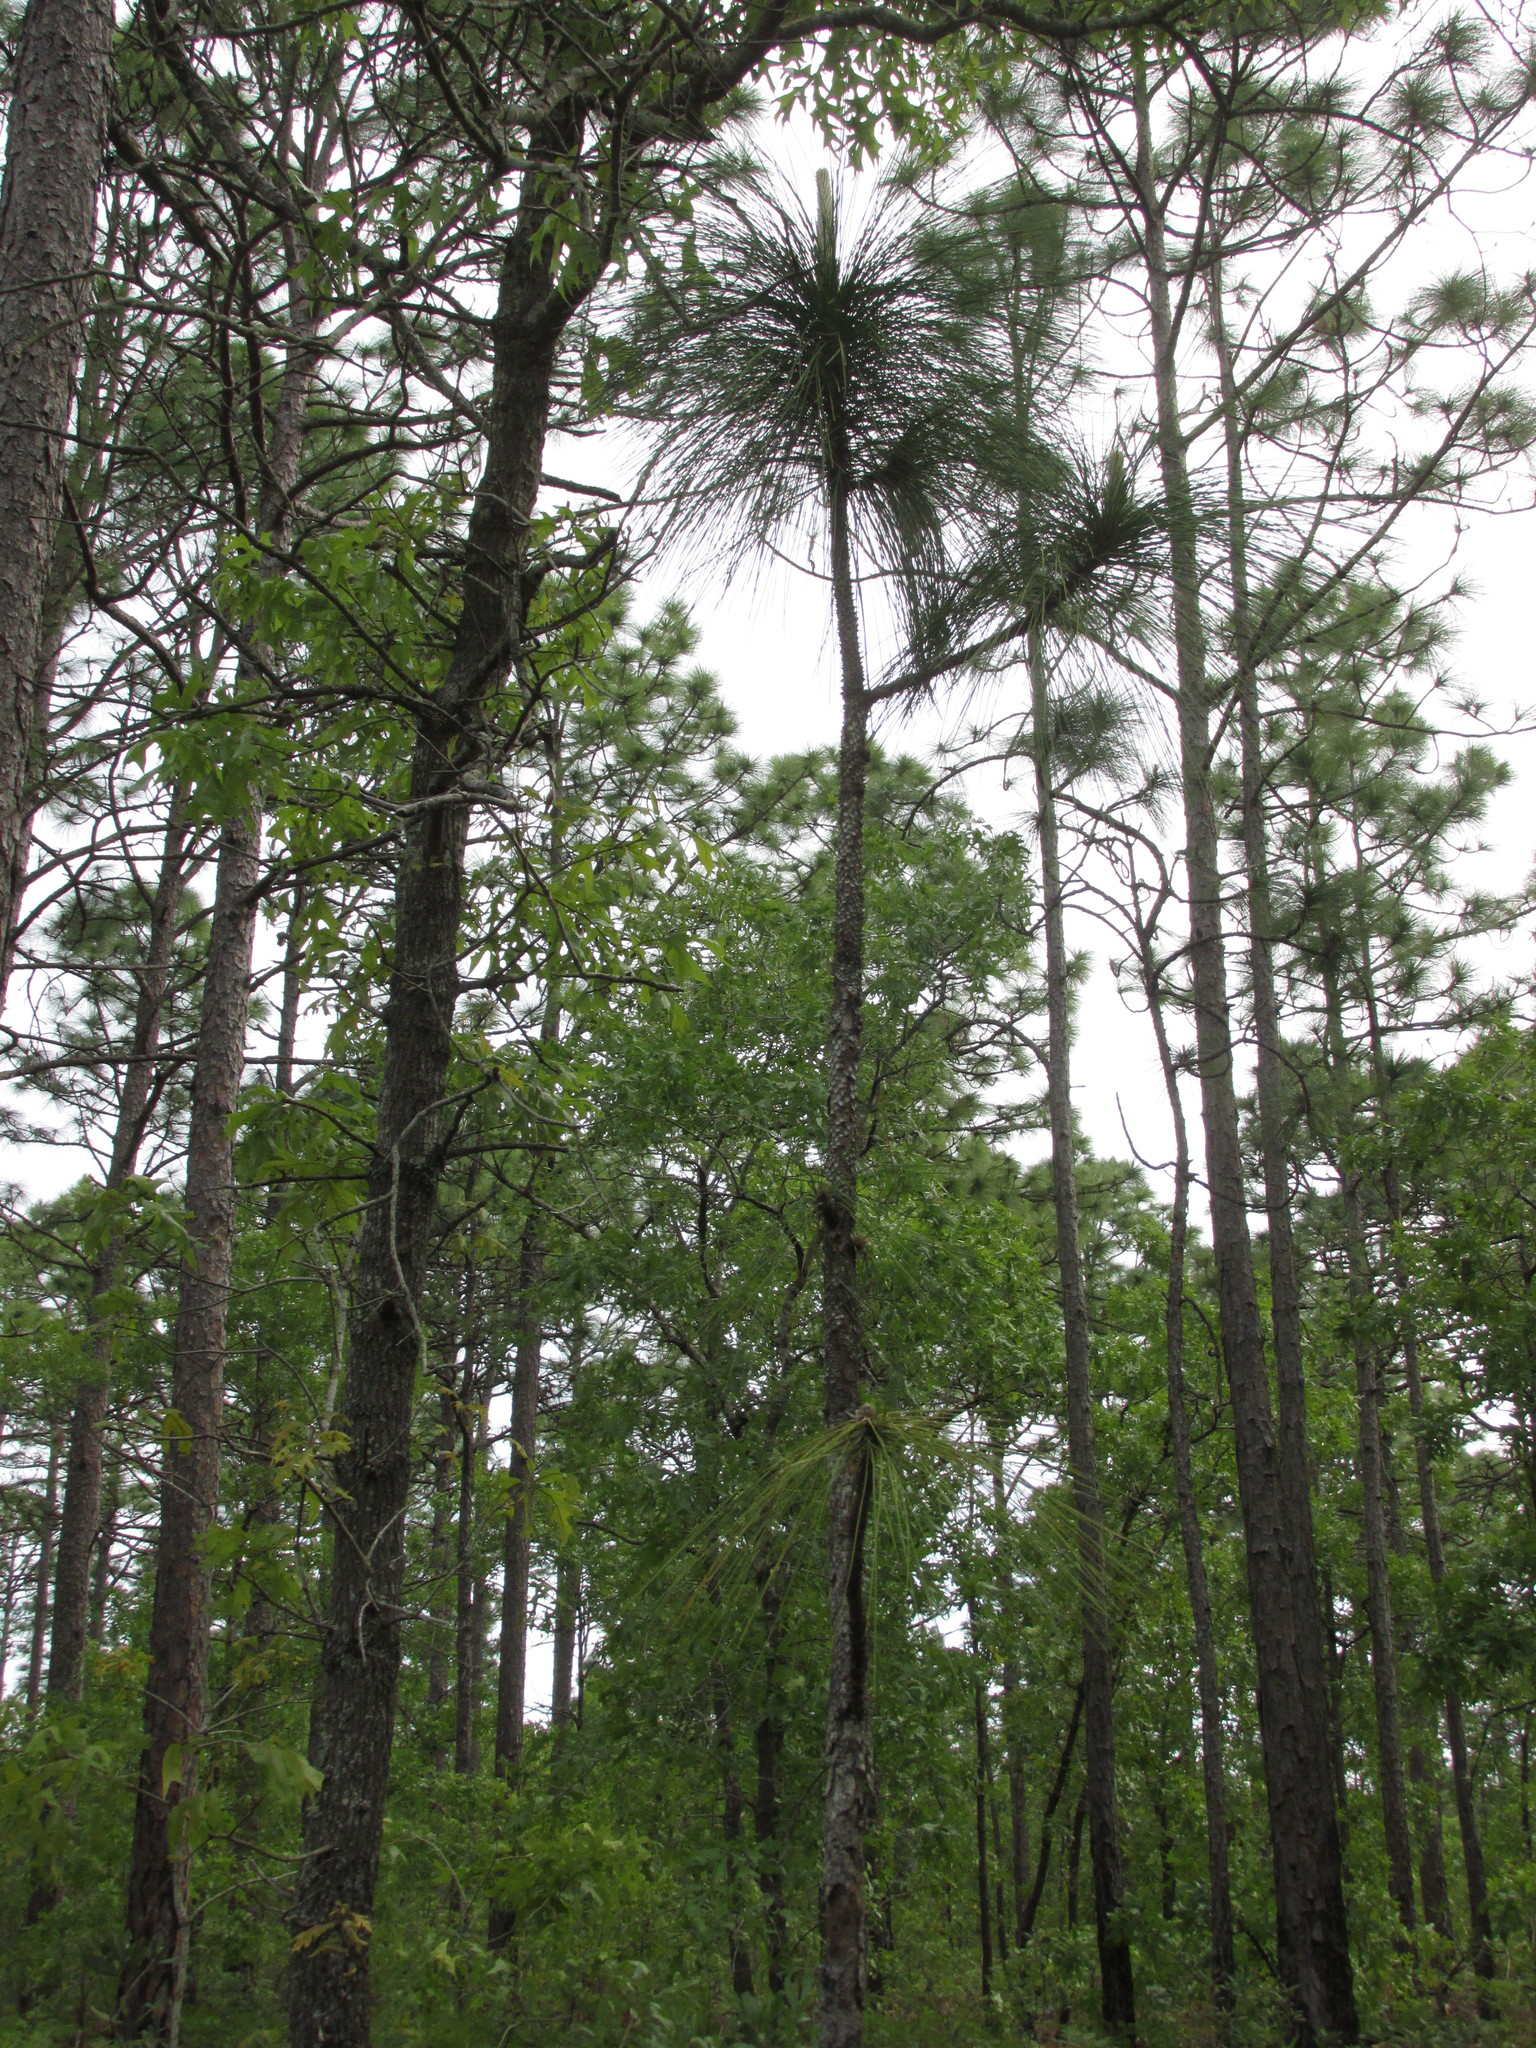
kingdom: Plantae
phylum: Tracheophyta
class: Pinopsida
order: Pinales
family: Pinaceae
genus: Pinus
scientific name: Pinus palustris
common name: Longleaf pine
